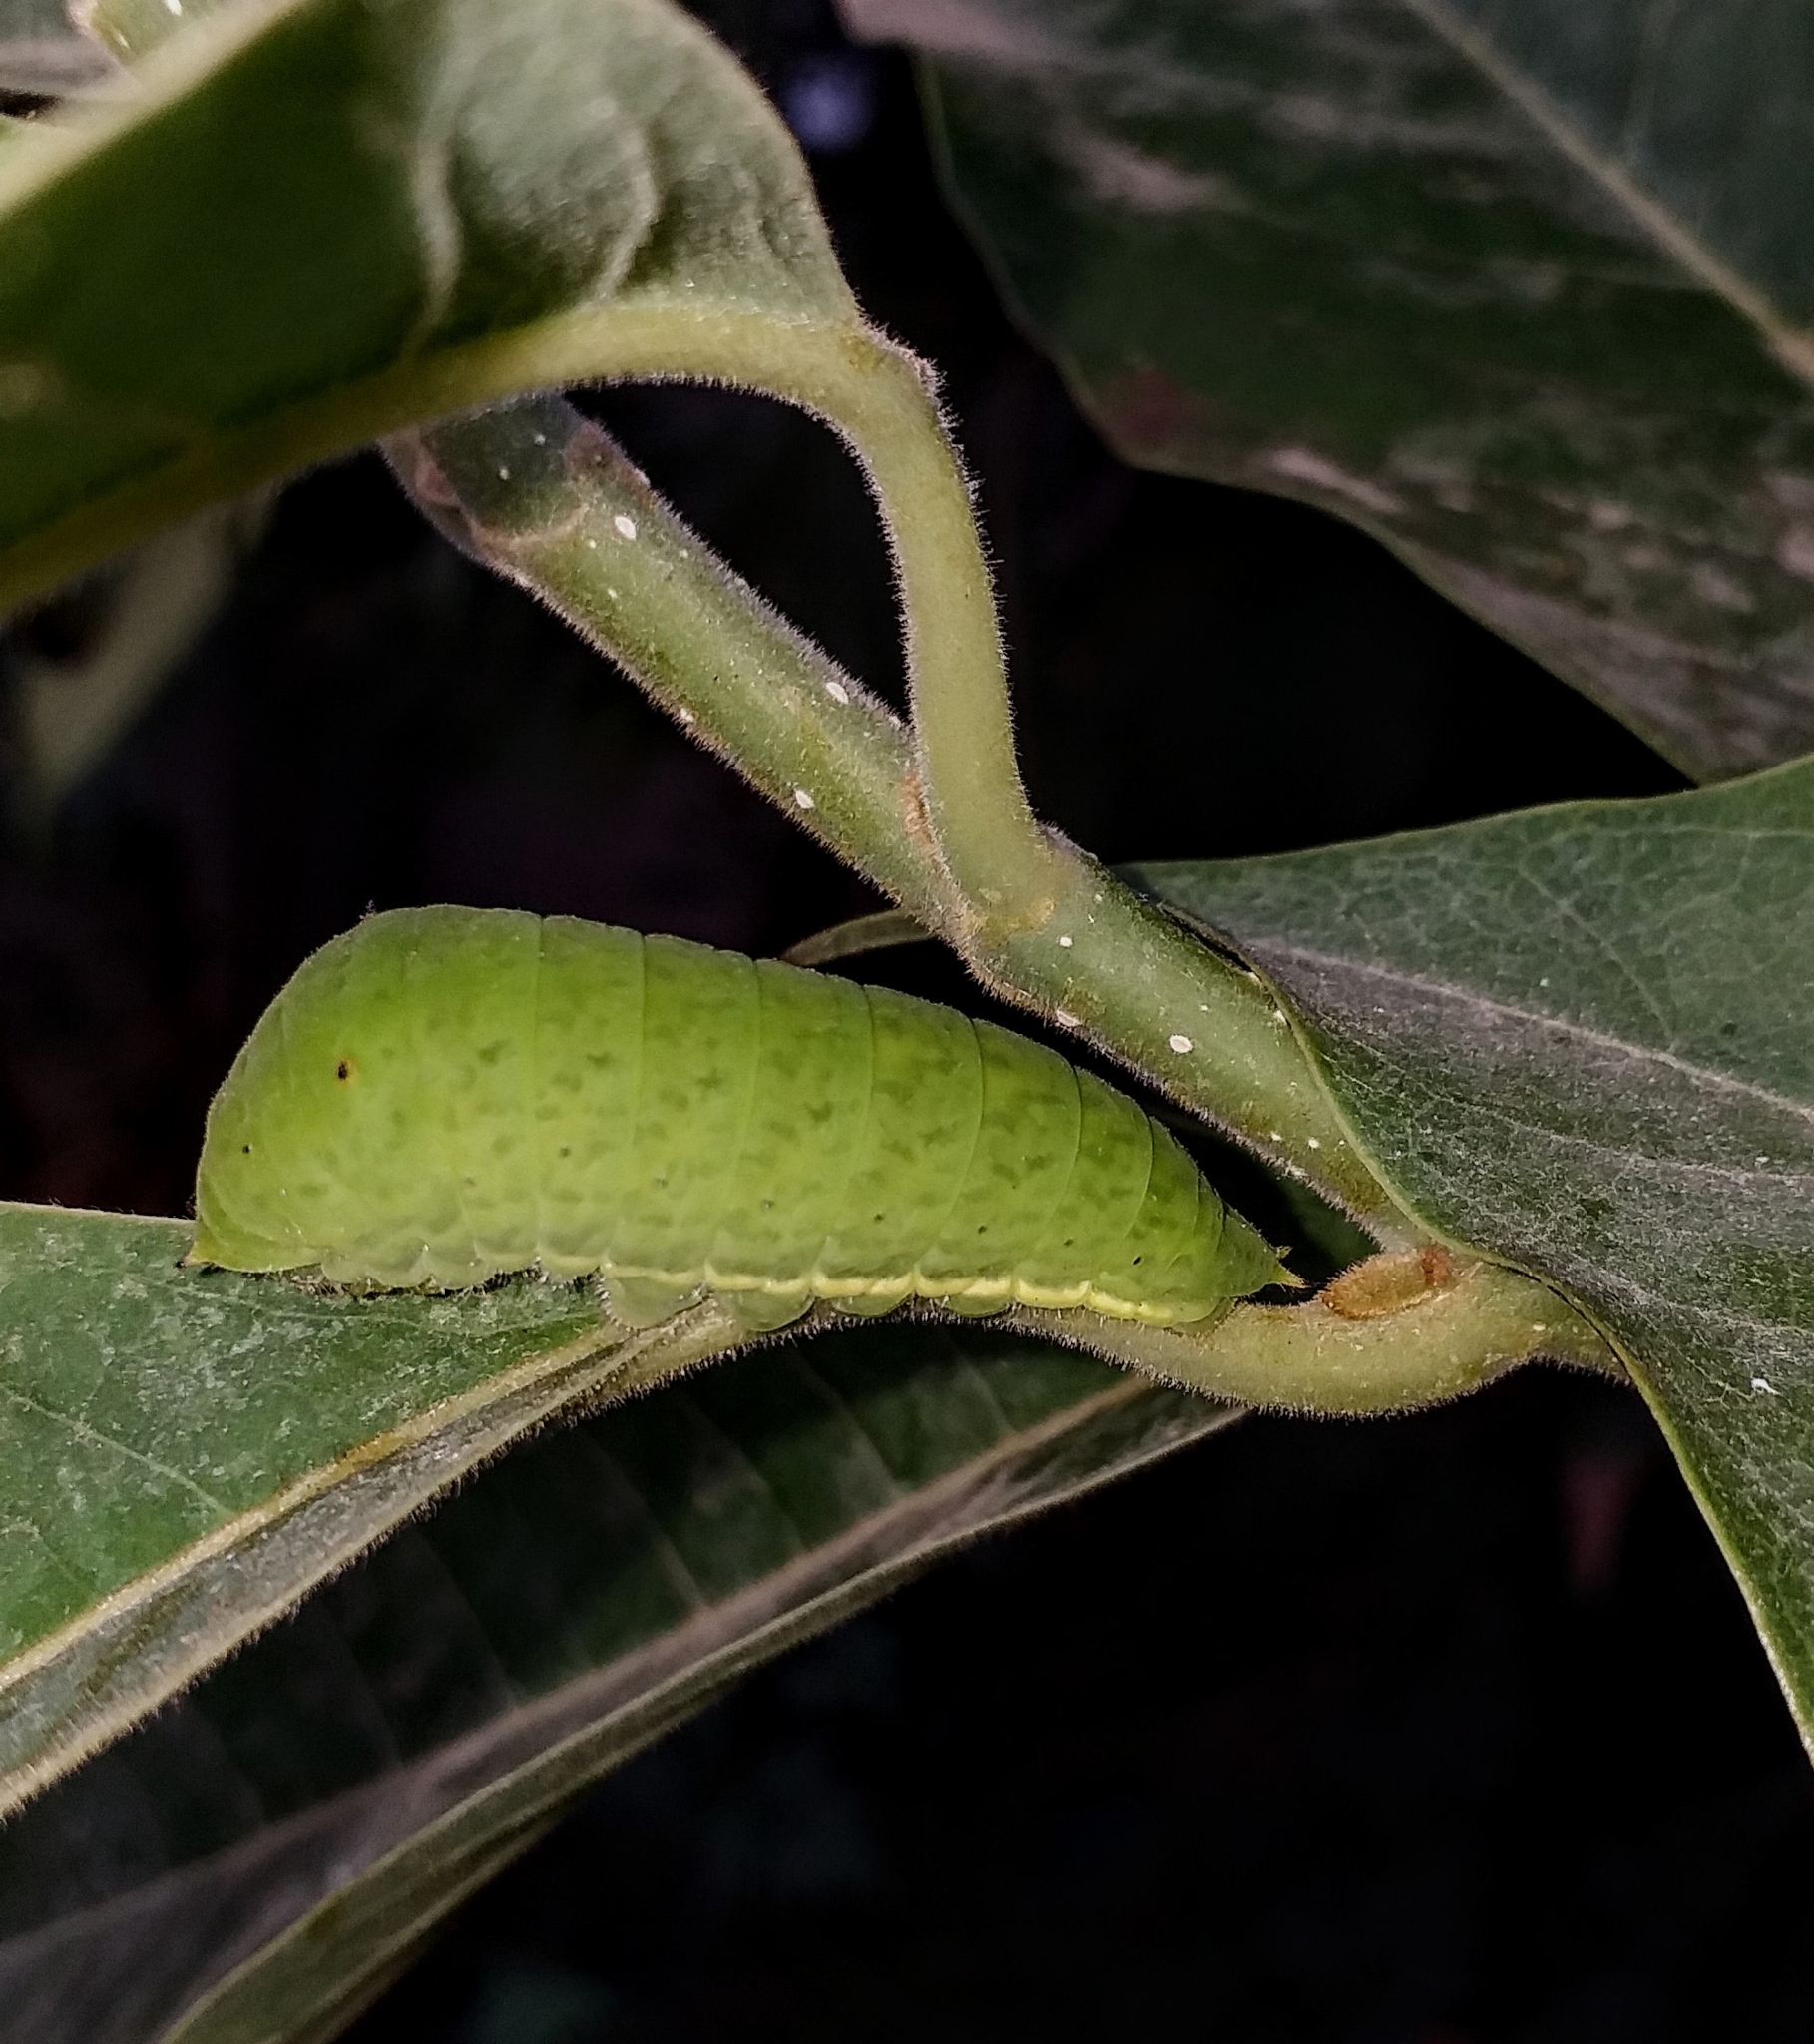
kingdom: Animalia
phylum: Arthropoda
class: Insecta
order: Lepidoptera
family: Papilionidae
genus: Graphium
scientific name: Graphium agamemnon
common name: Tailed jay
